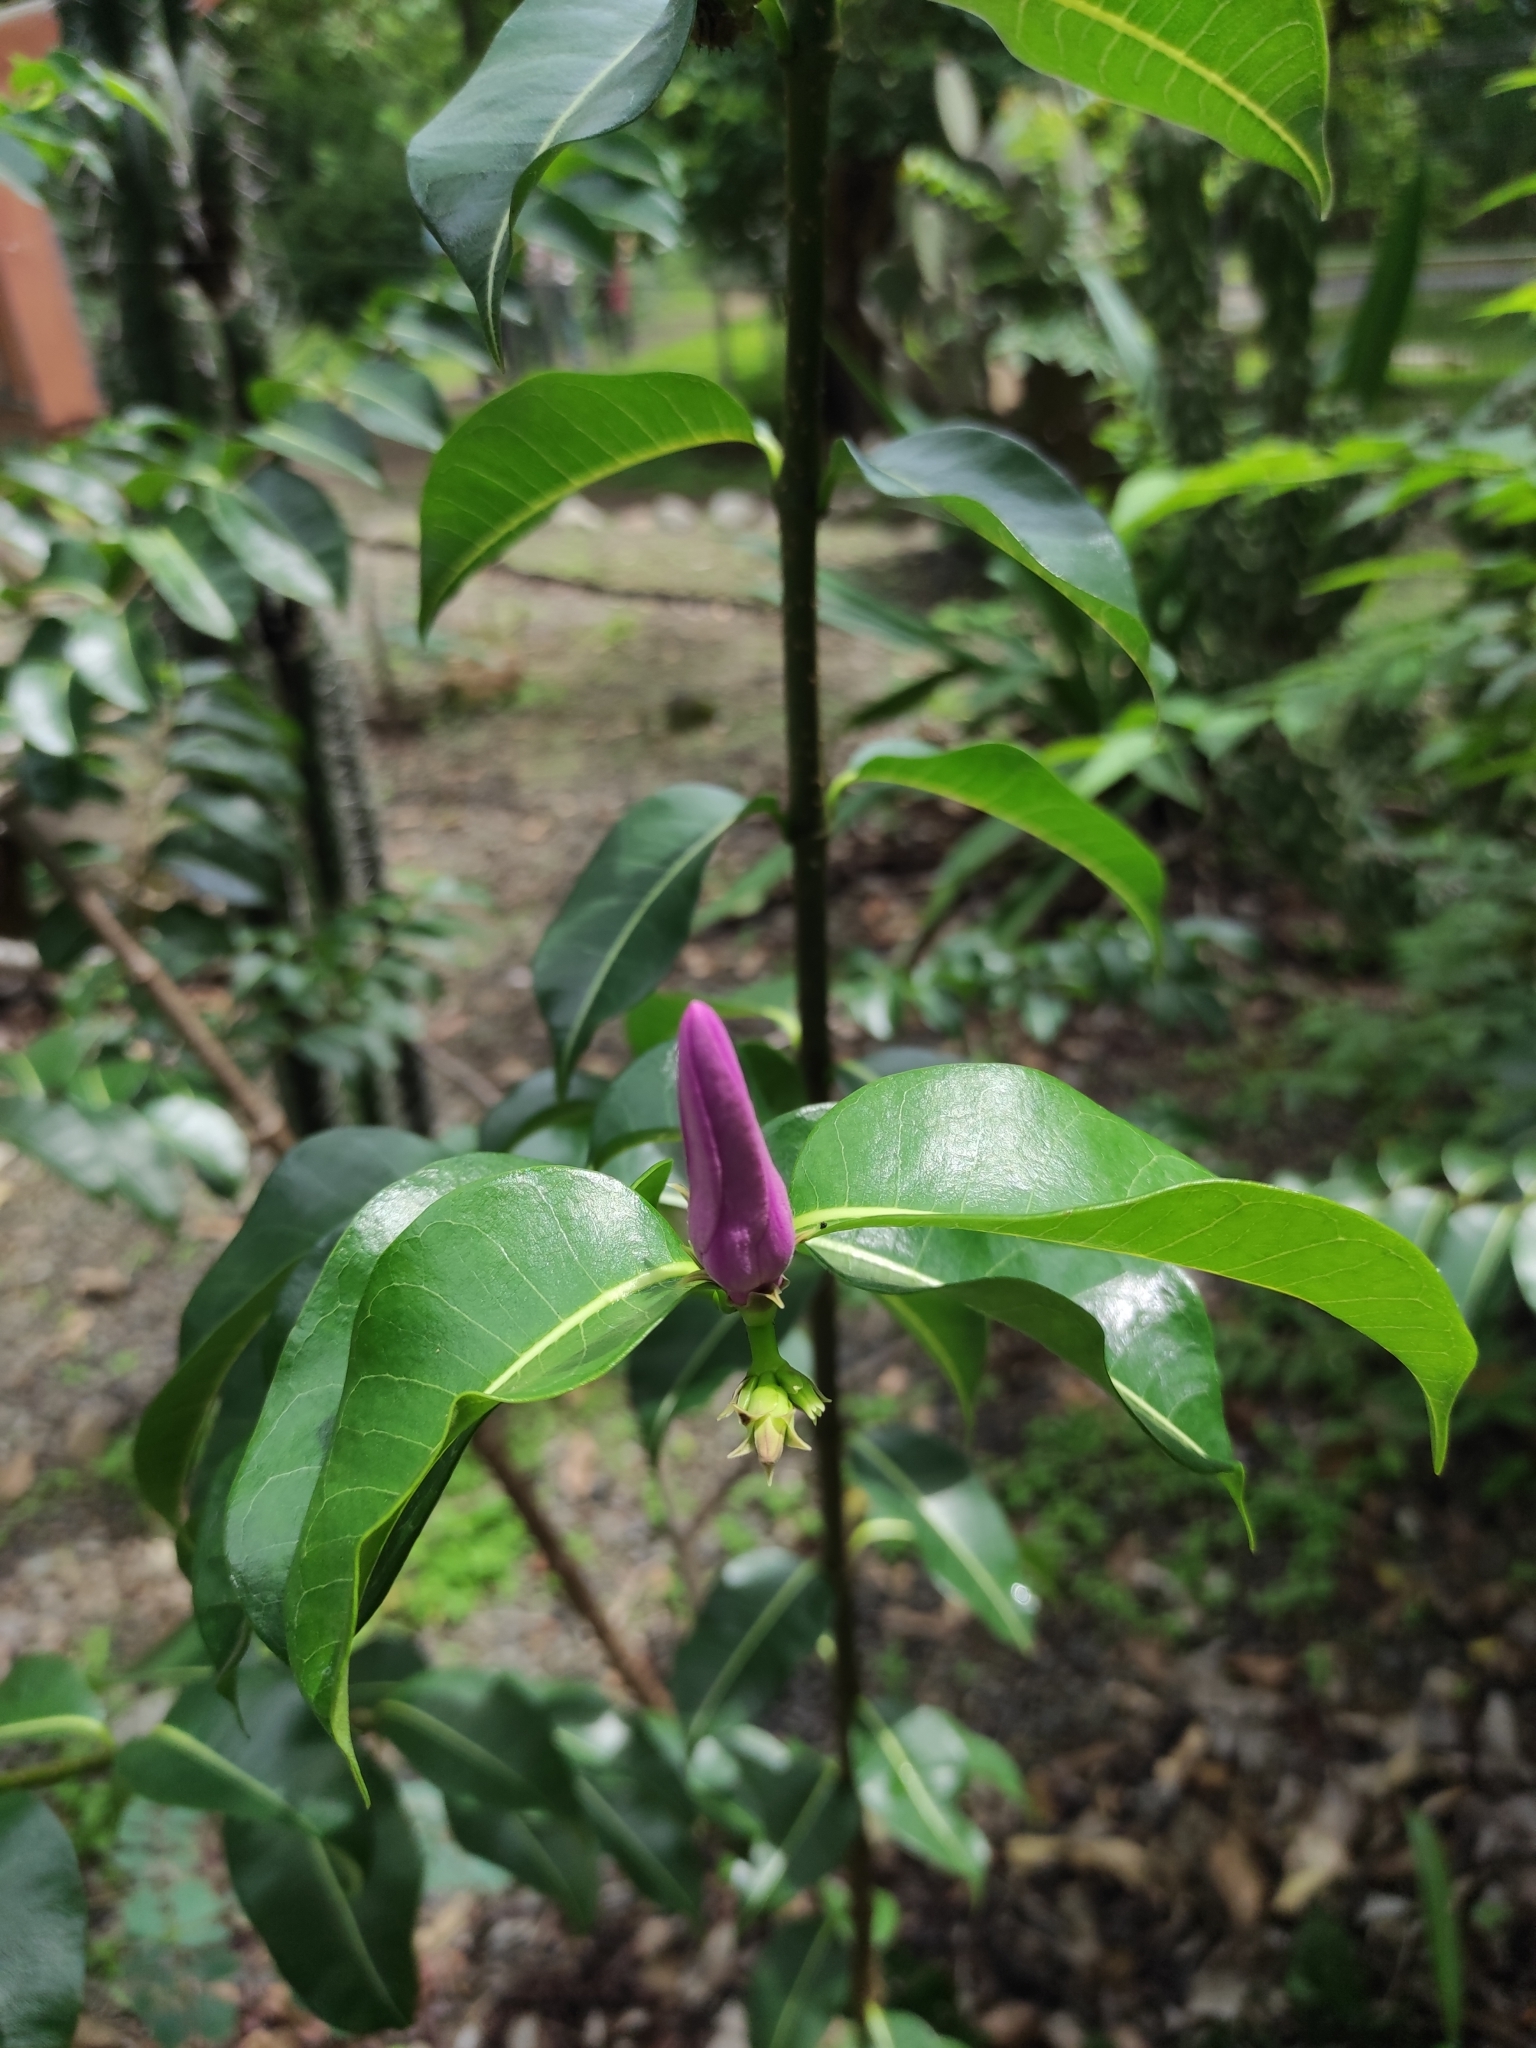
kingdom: Plantae
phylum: Tracheophyta
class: Magnoliopsida
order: Gentianales
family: Apocynaceae
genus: Cryptostegia
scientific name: Cryptostegia grandiflora
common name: Palay rubbervine
